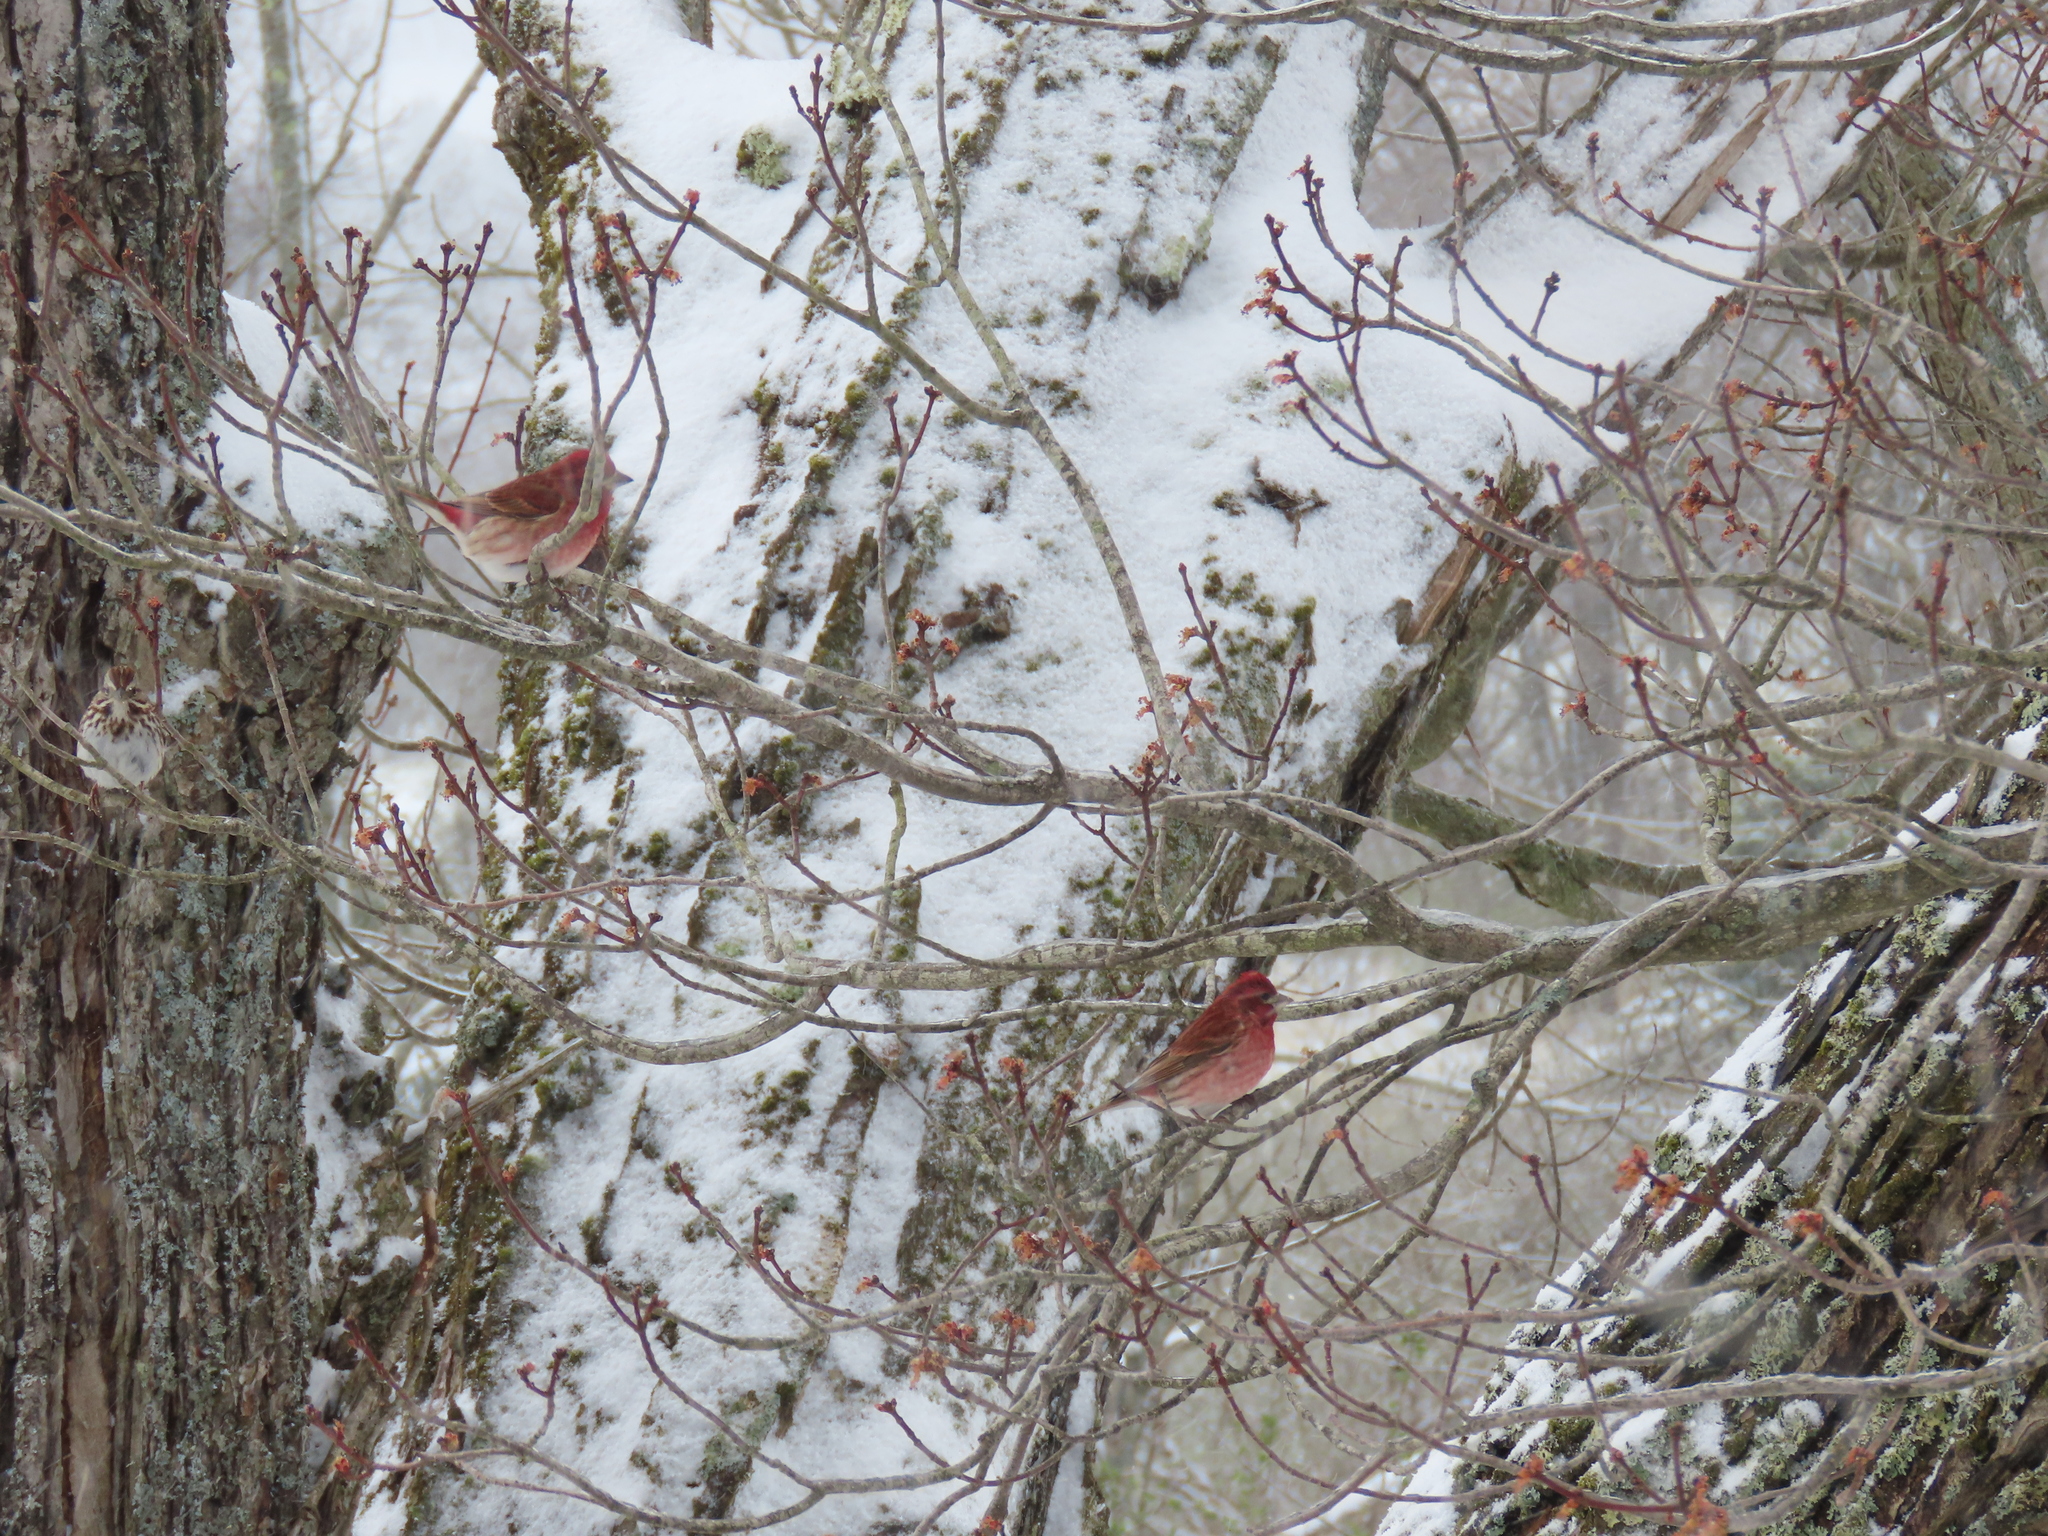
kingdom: Animalia
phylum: Chordata
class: Aves
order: Passeriformes
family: Fringillidae
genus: Haemorhous
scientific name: Haemorhous purpureus
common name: Purple finch
